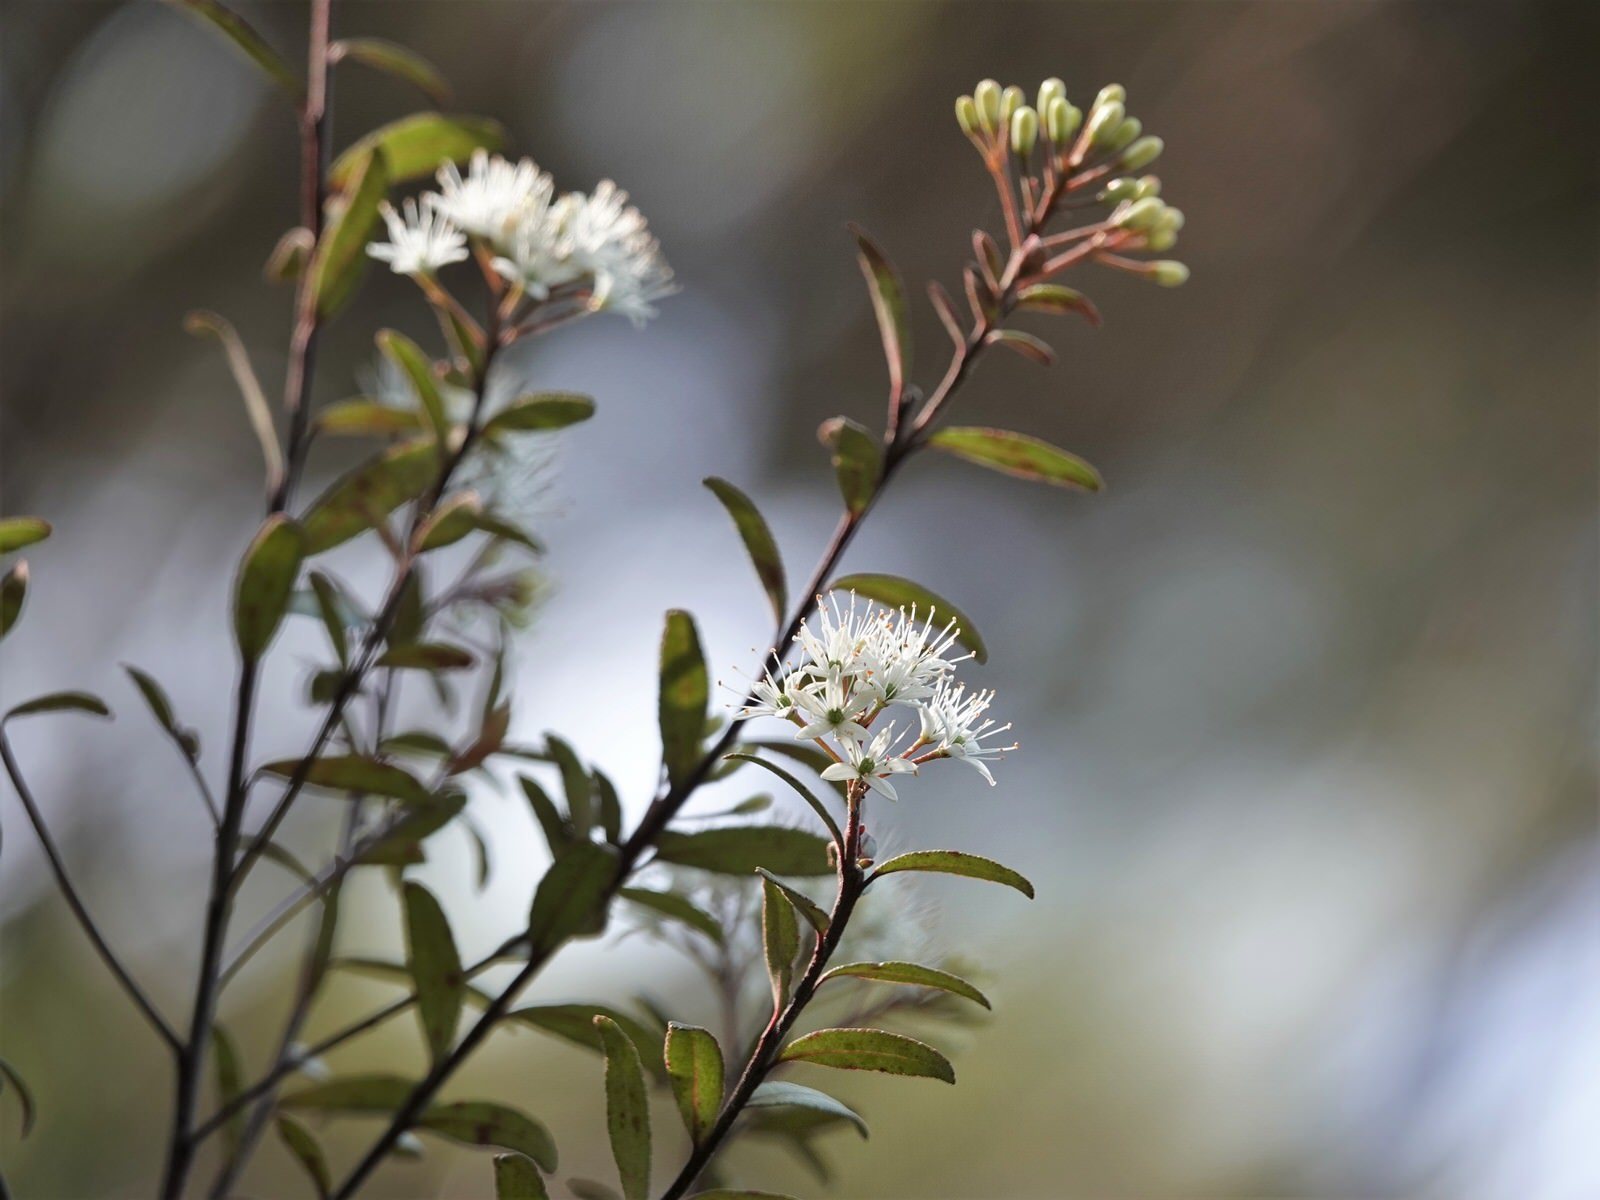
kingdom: Plantae
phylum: Tracheophyta
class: Magnoliopsida
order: Sapindales
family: Rutaceae
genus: Leionema
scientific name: Leionema nudum
